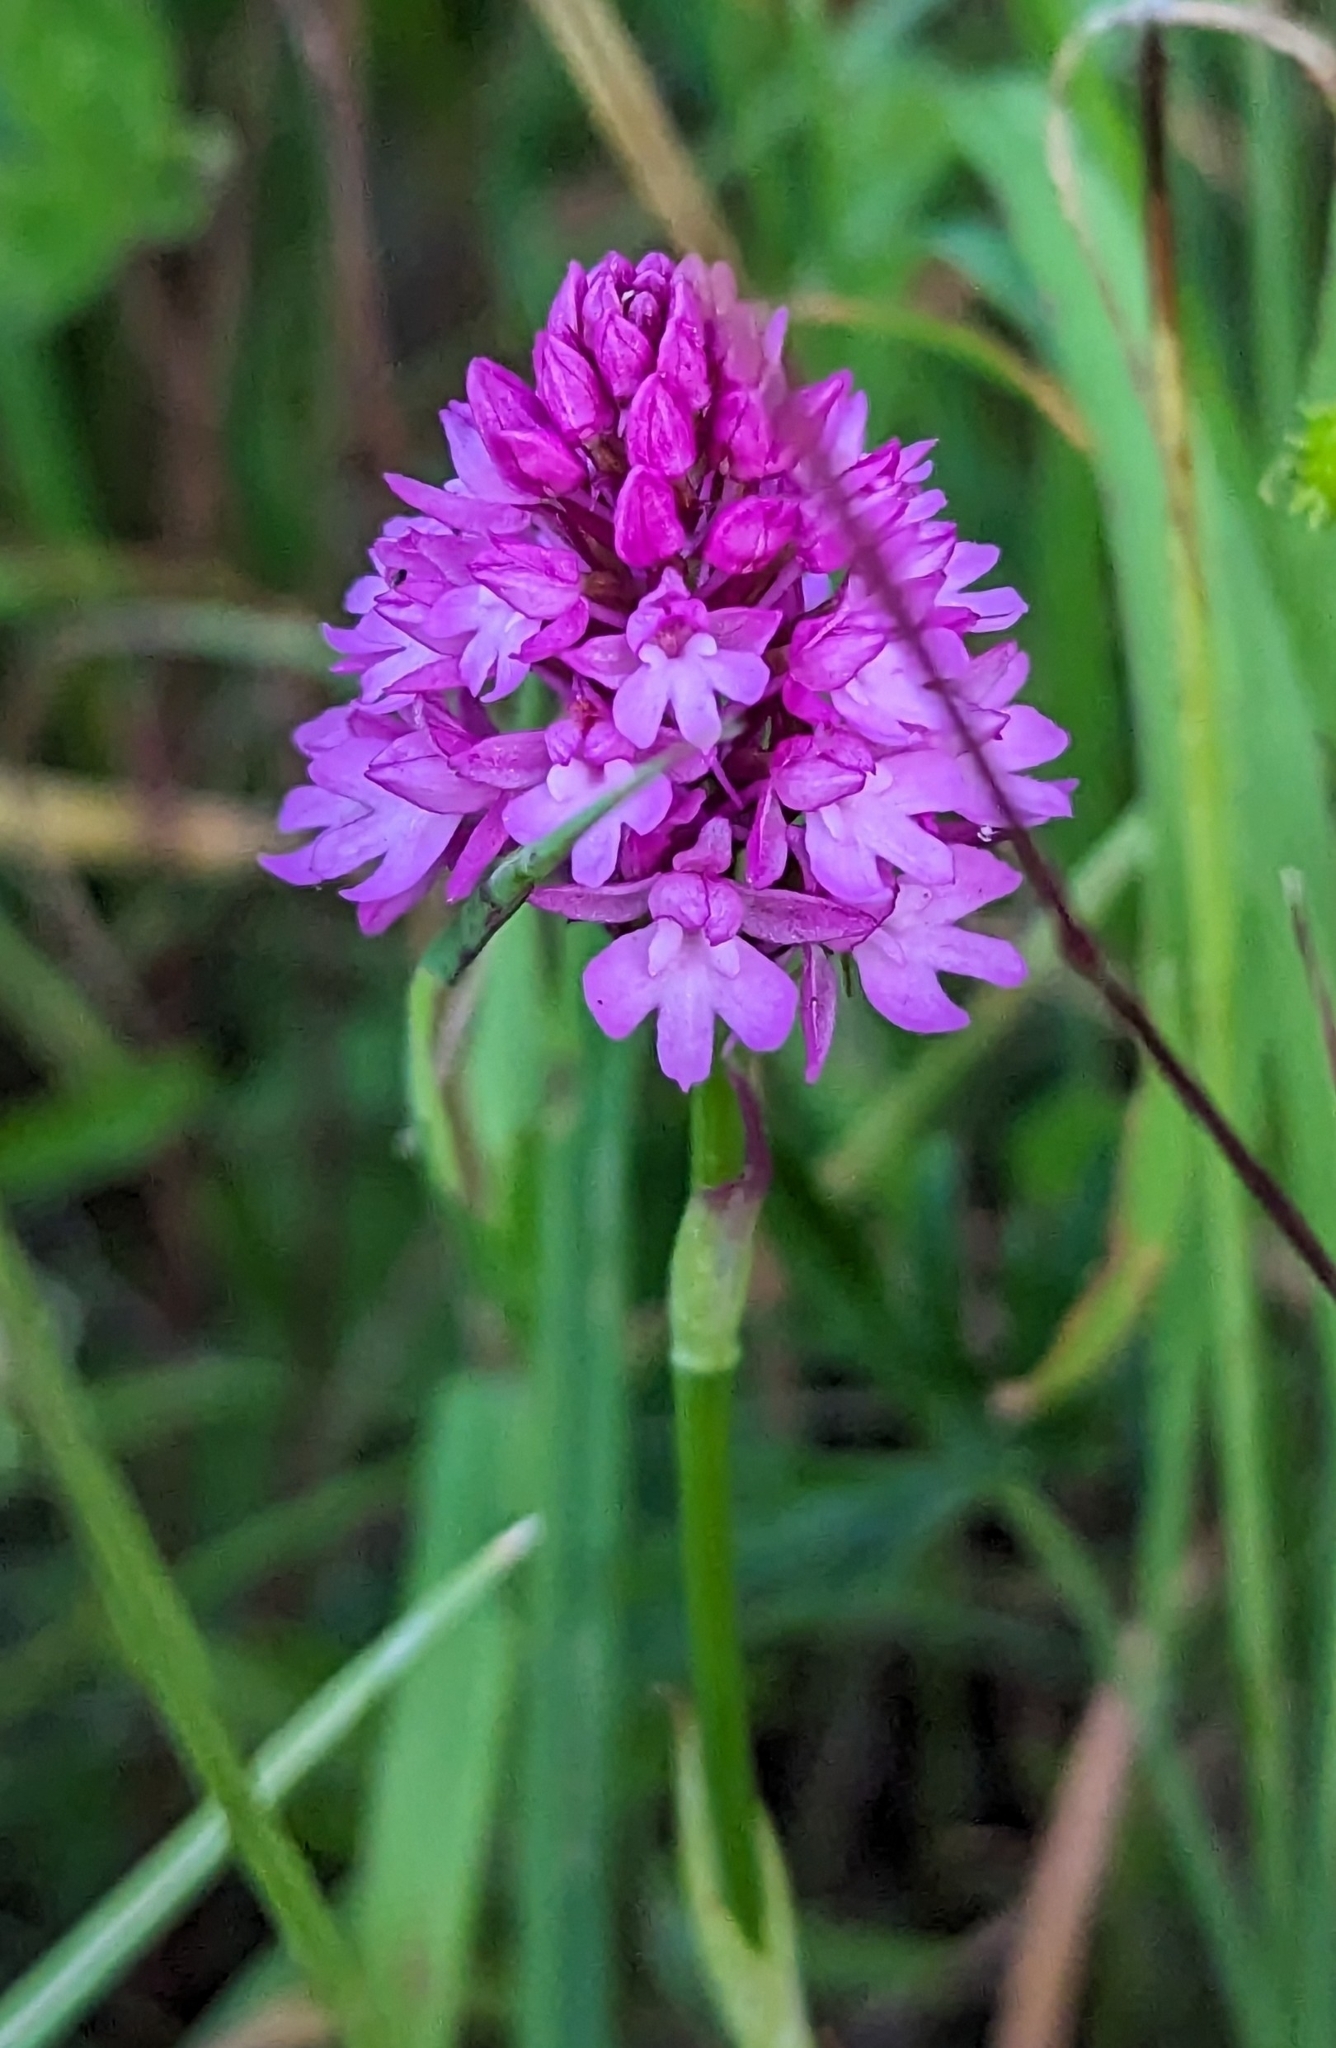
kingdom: Plantae
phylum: Tracheophyta
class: Liliopsida
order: Asparagales
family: Orchidaceae
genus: Anacamptis
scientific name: Anacamptis pyramidalis
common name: Pyramidal orchid
